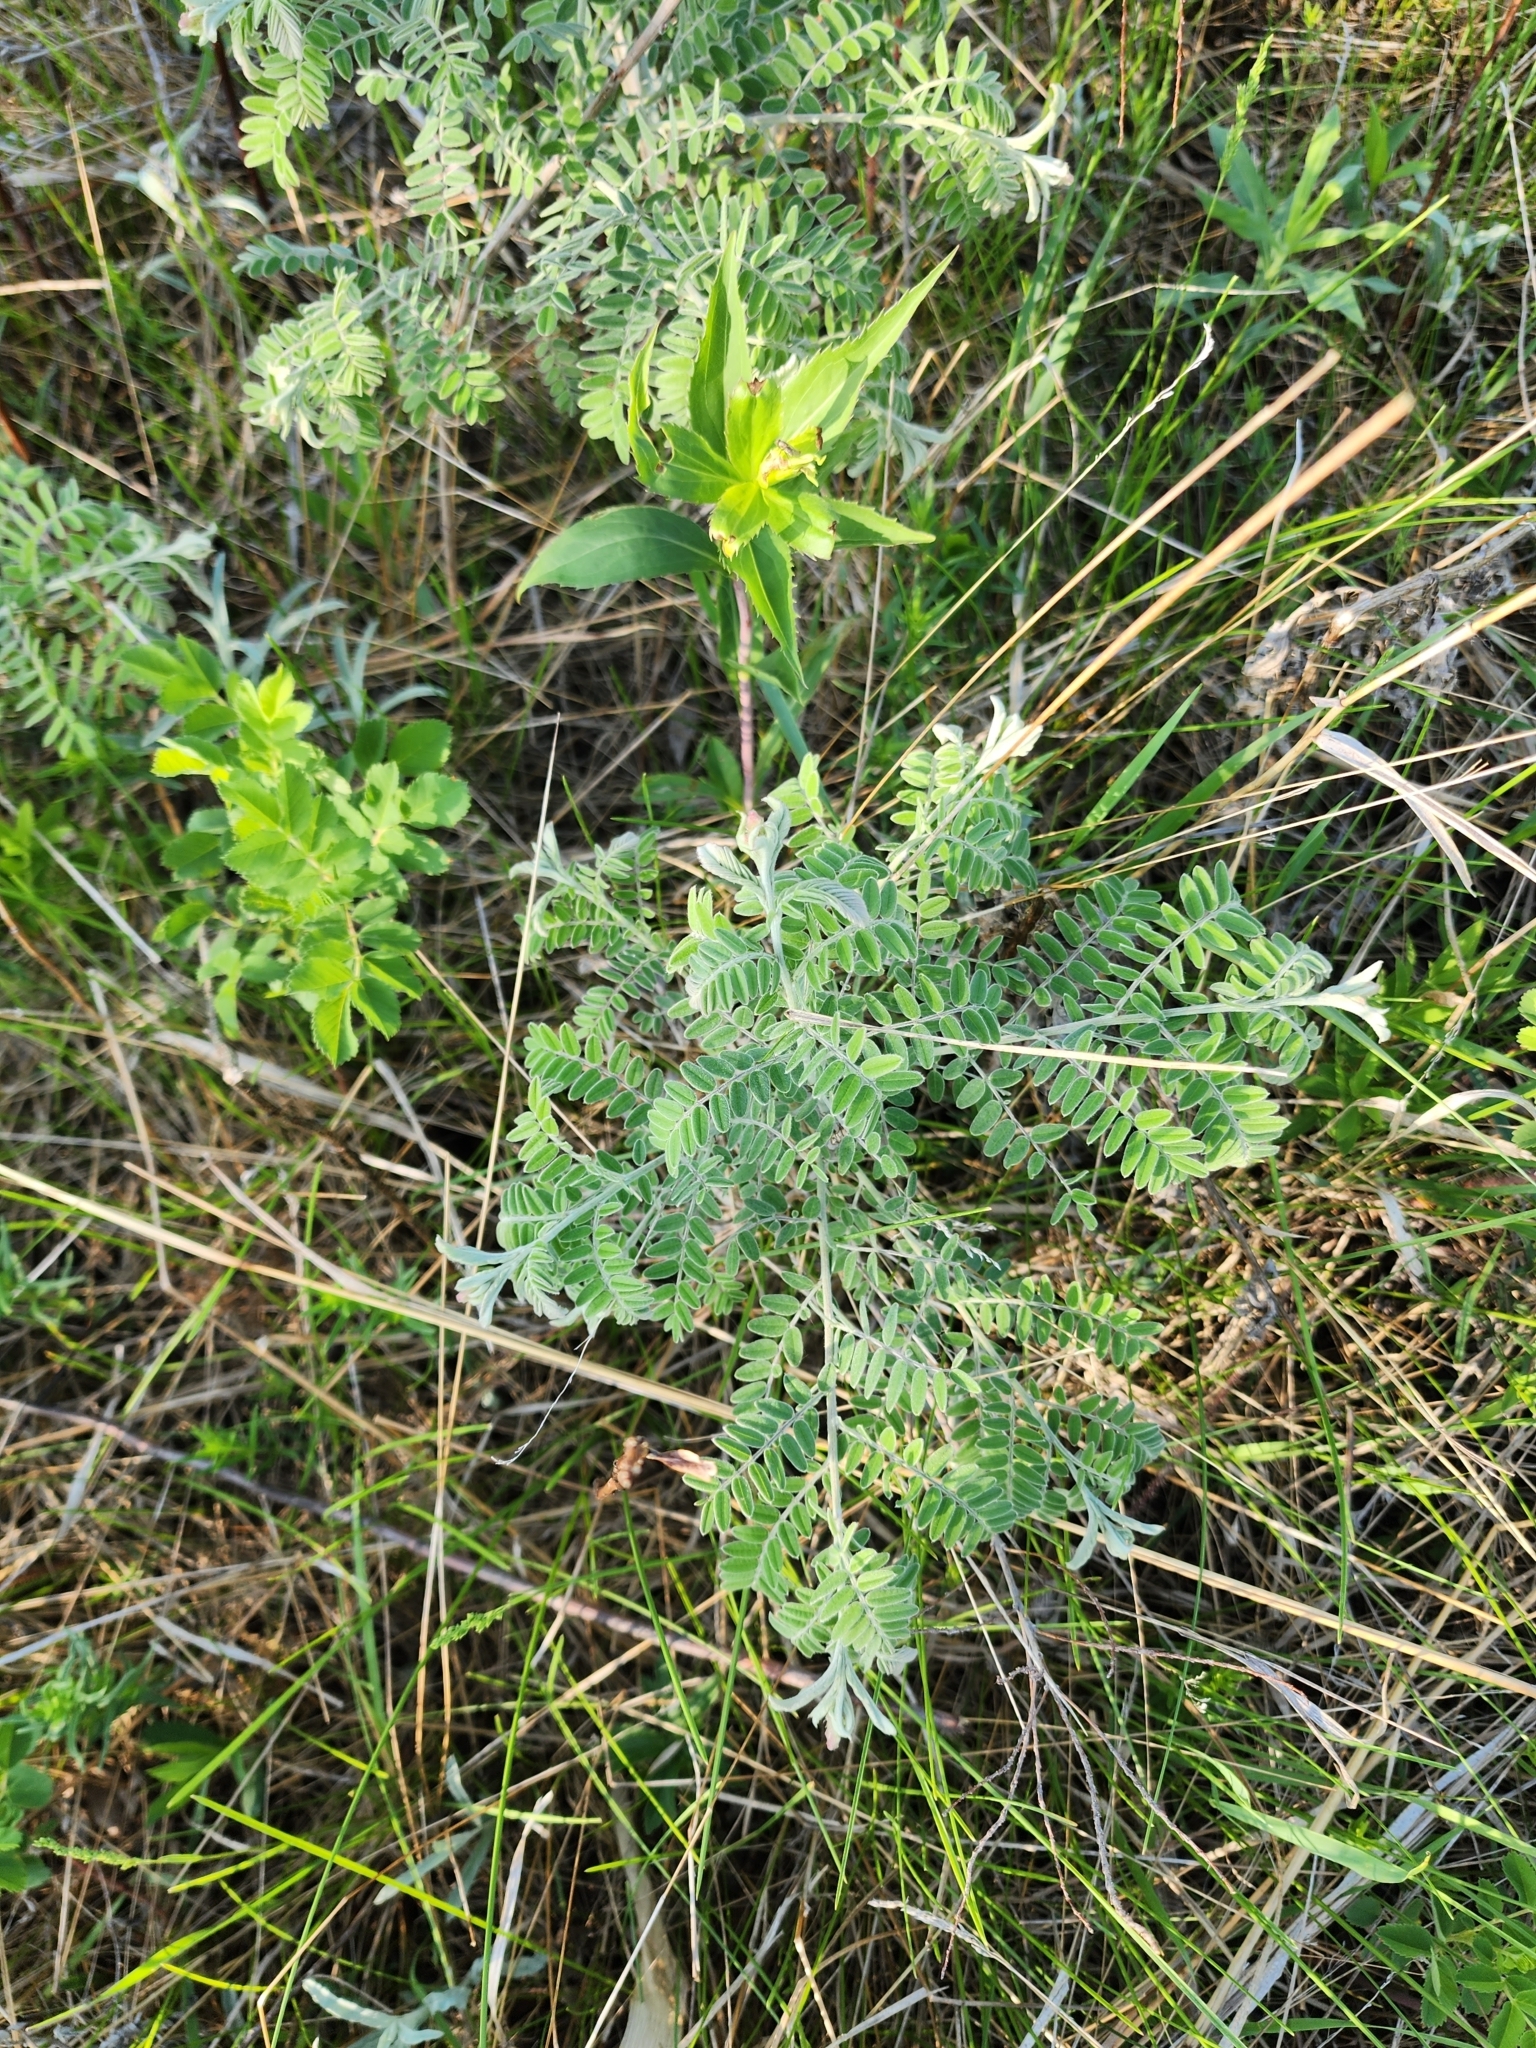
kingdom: Plantae
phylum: Tracheophyta
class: Magnoliopsida
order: Fabales
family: Fabaceae
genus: Amorpha
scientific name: Amorpha canescens
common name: Leadplant
